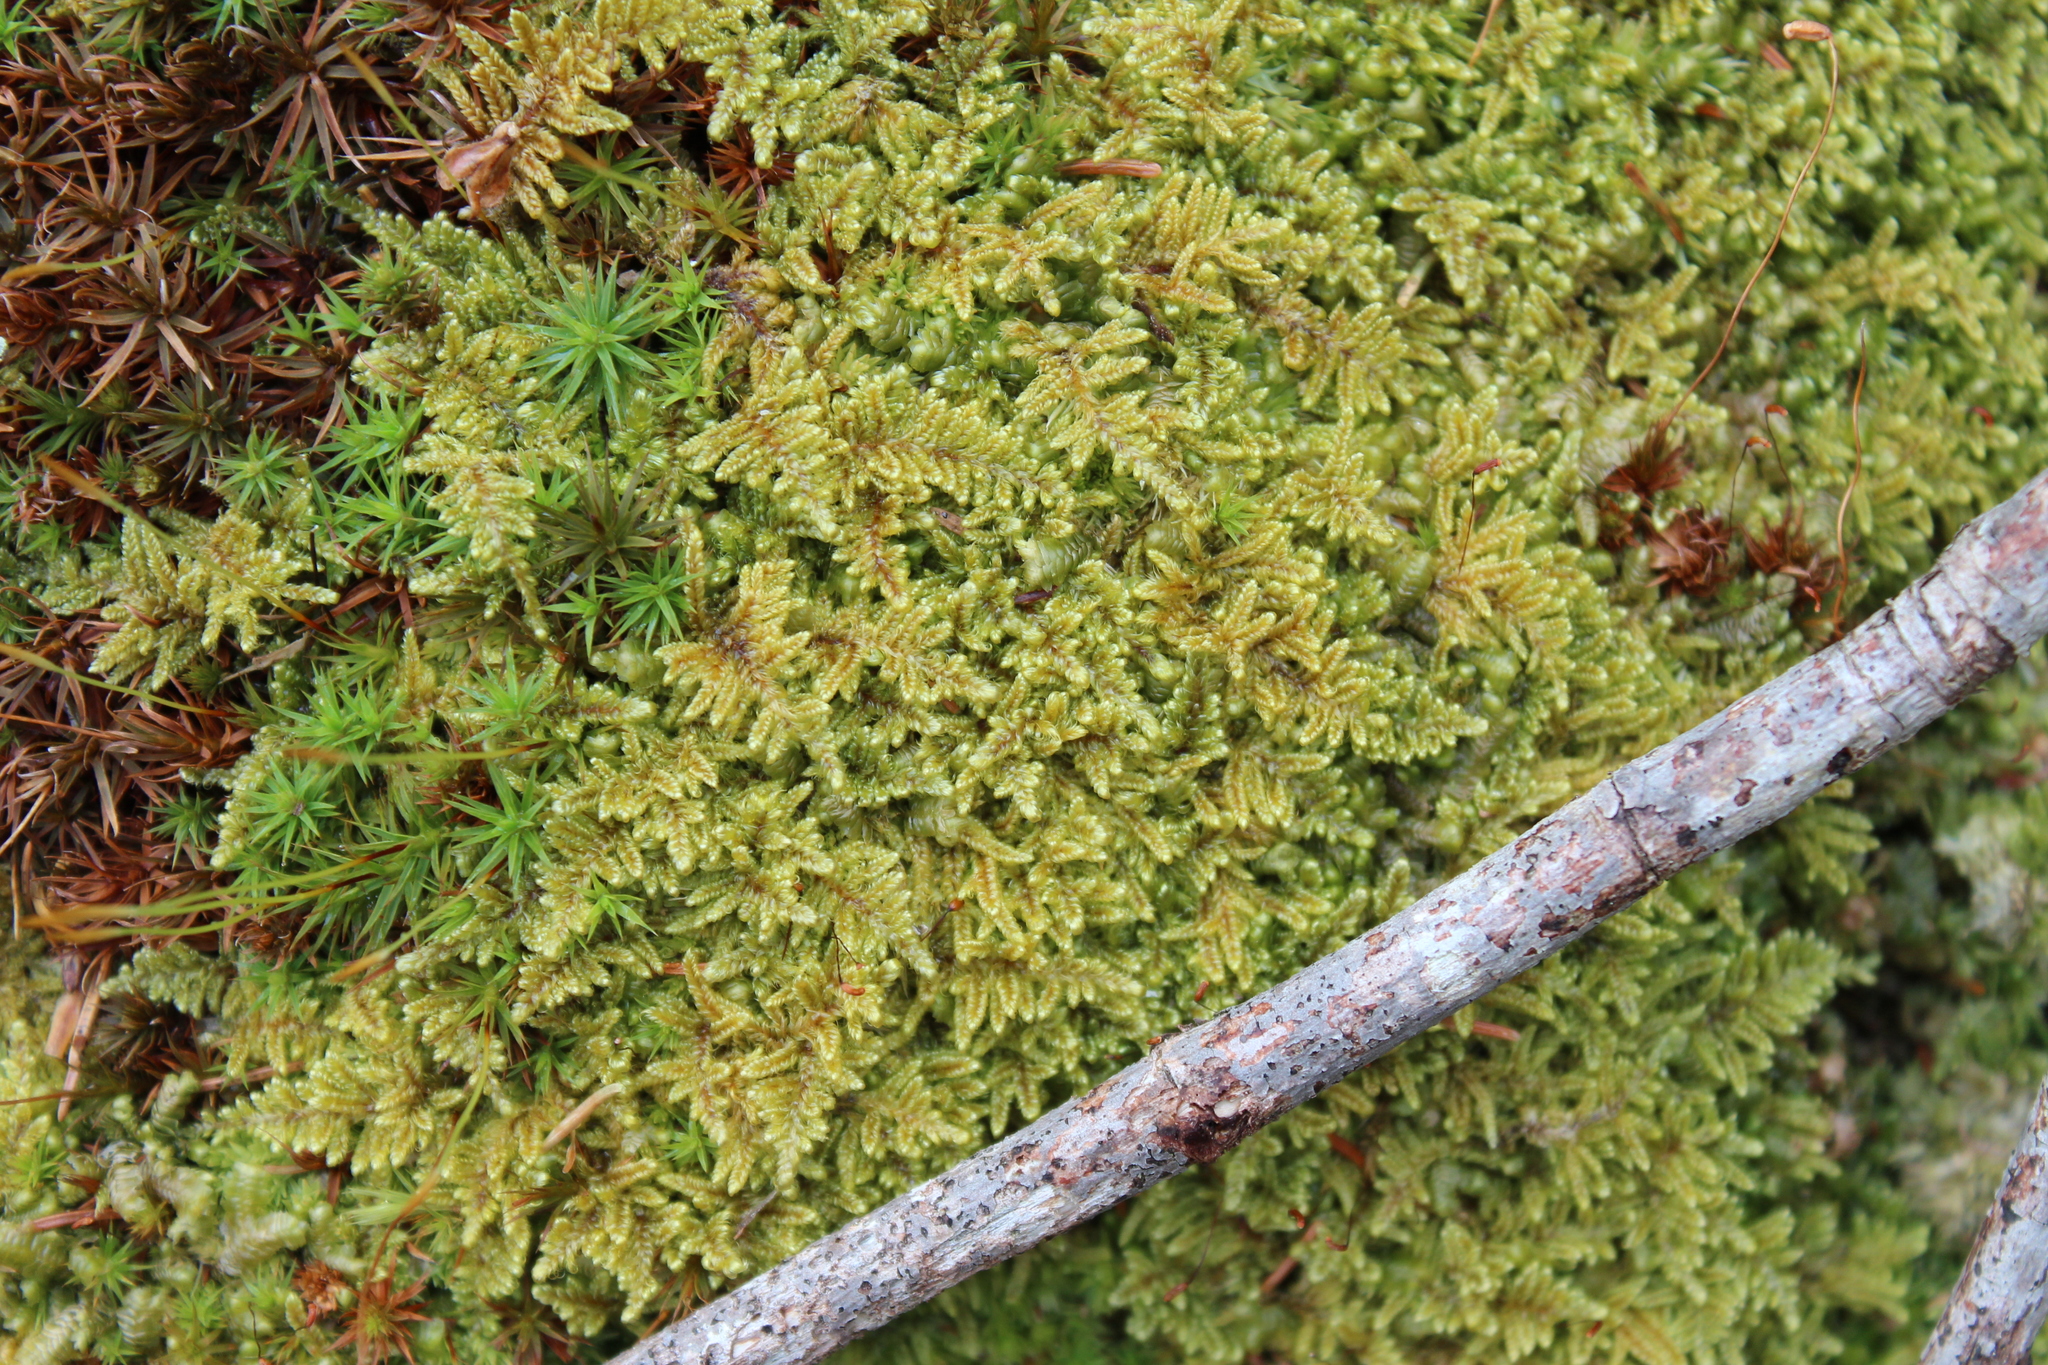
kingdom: Plantae
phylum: Bryophyta
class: Bryopsida
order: Hypnales
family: Callicladiaceae
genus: Callicladium
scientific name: Callicladium imponens
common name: Brocade moss
